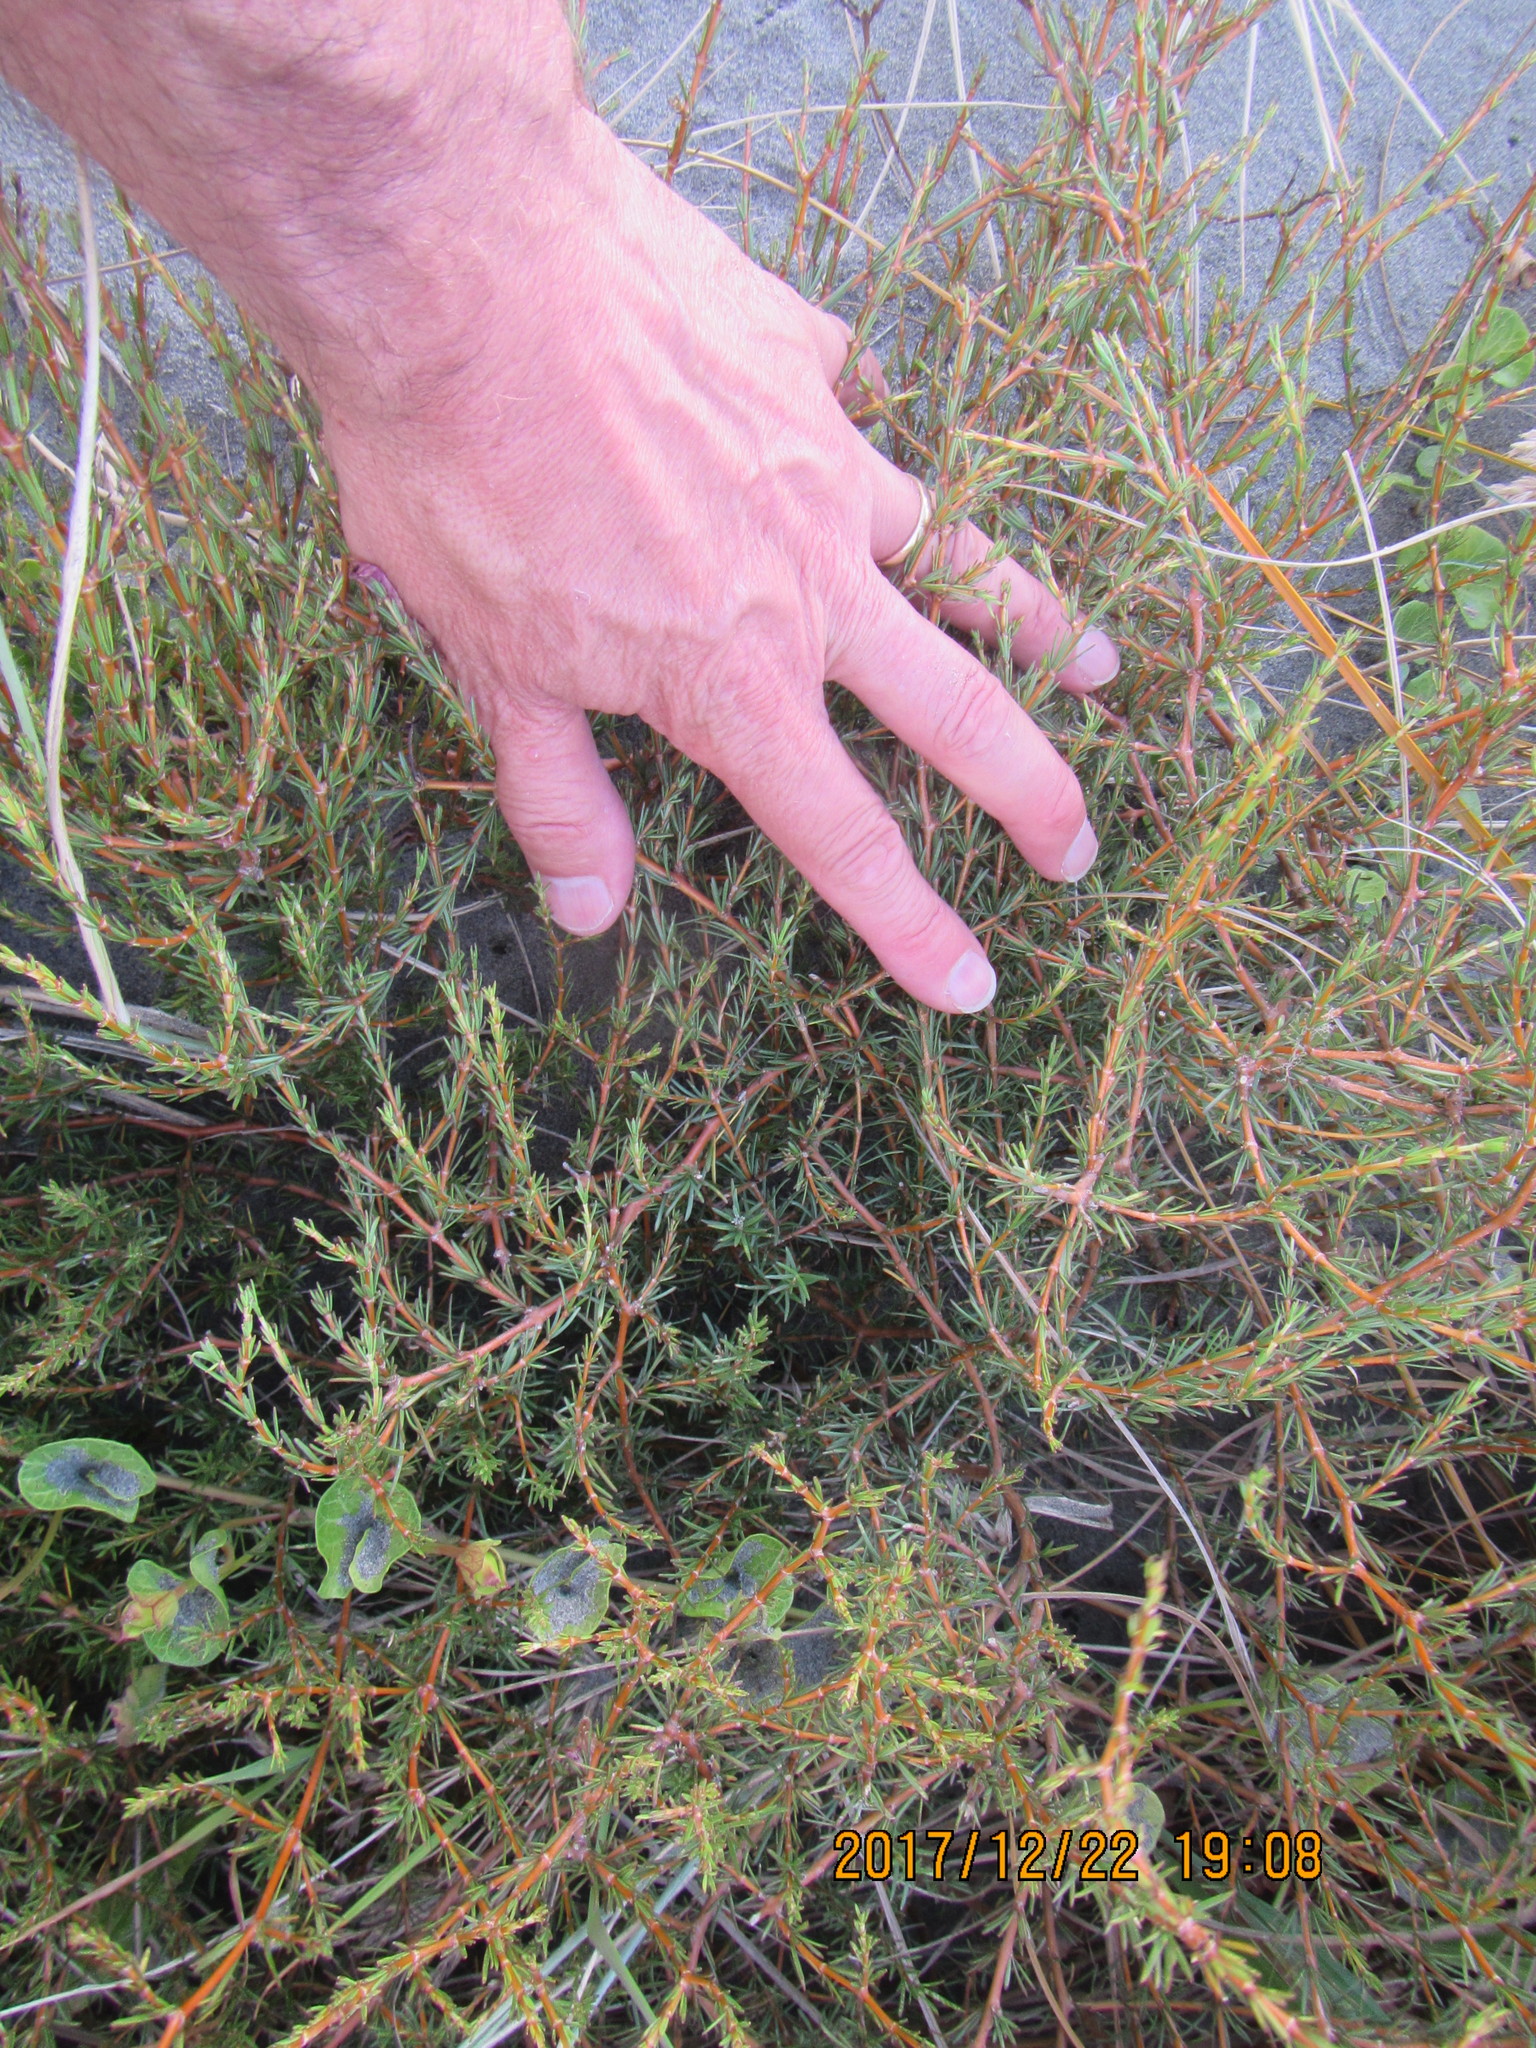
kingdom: Plantae
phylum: Tracheophyta
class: Magnoliopsida
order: Gentianales
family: Rubiaceae
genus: Coprosma
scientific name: Coprosma acerosa
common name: Sand coprosma
